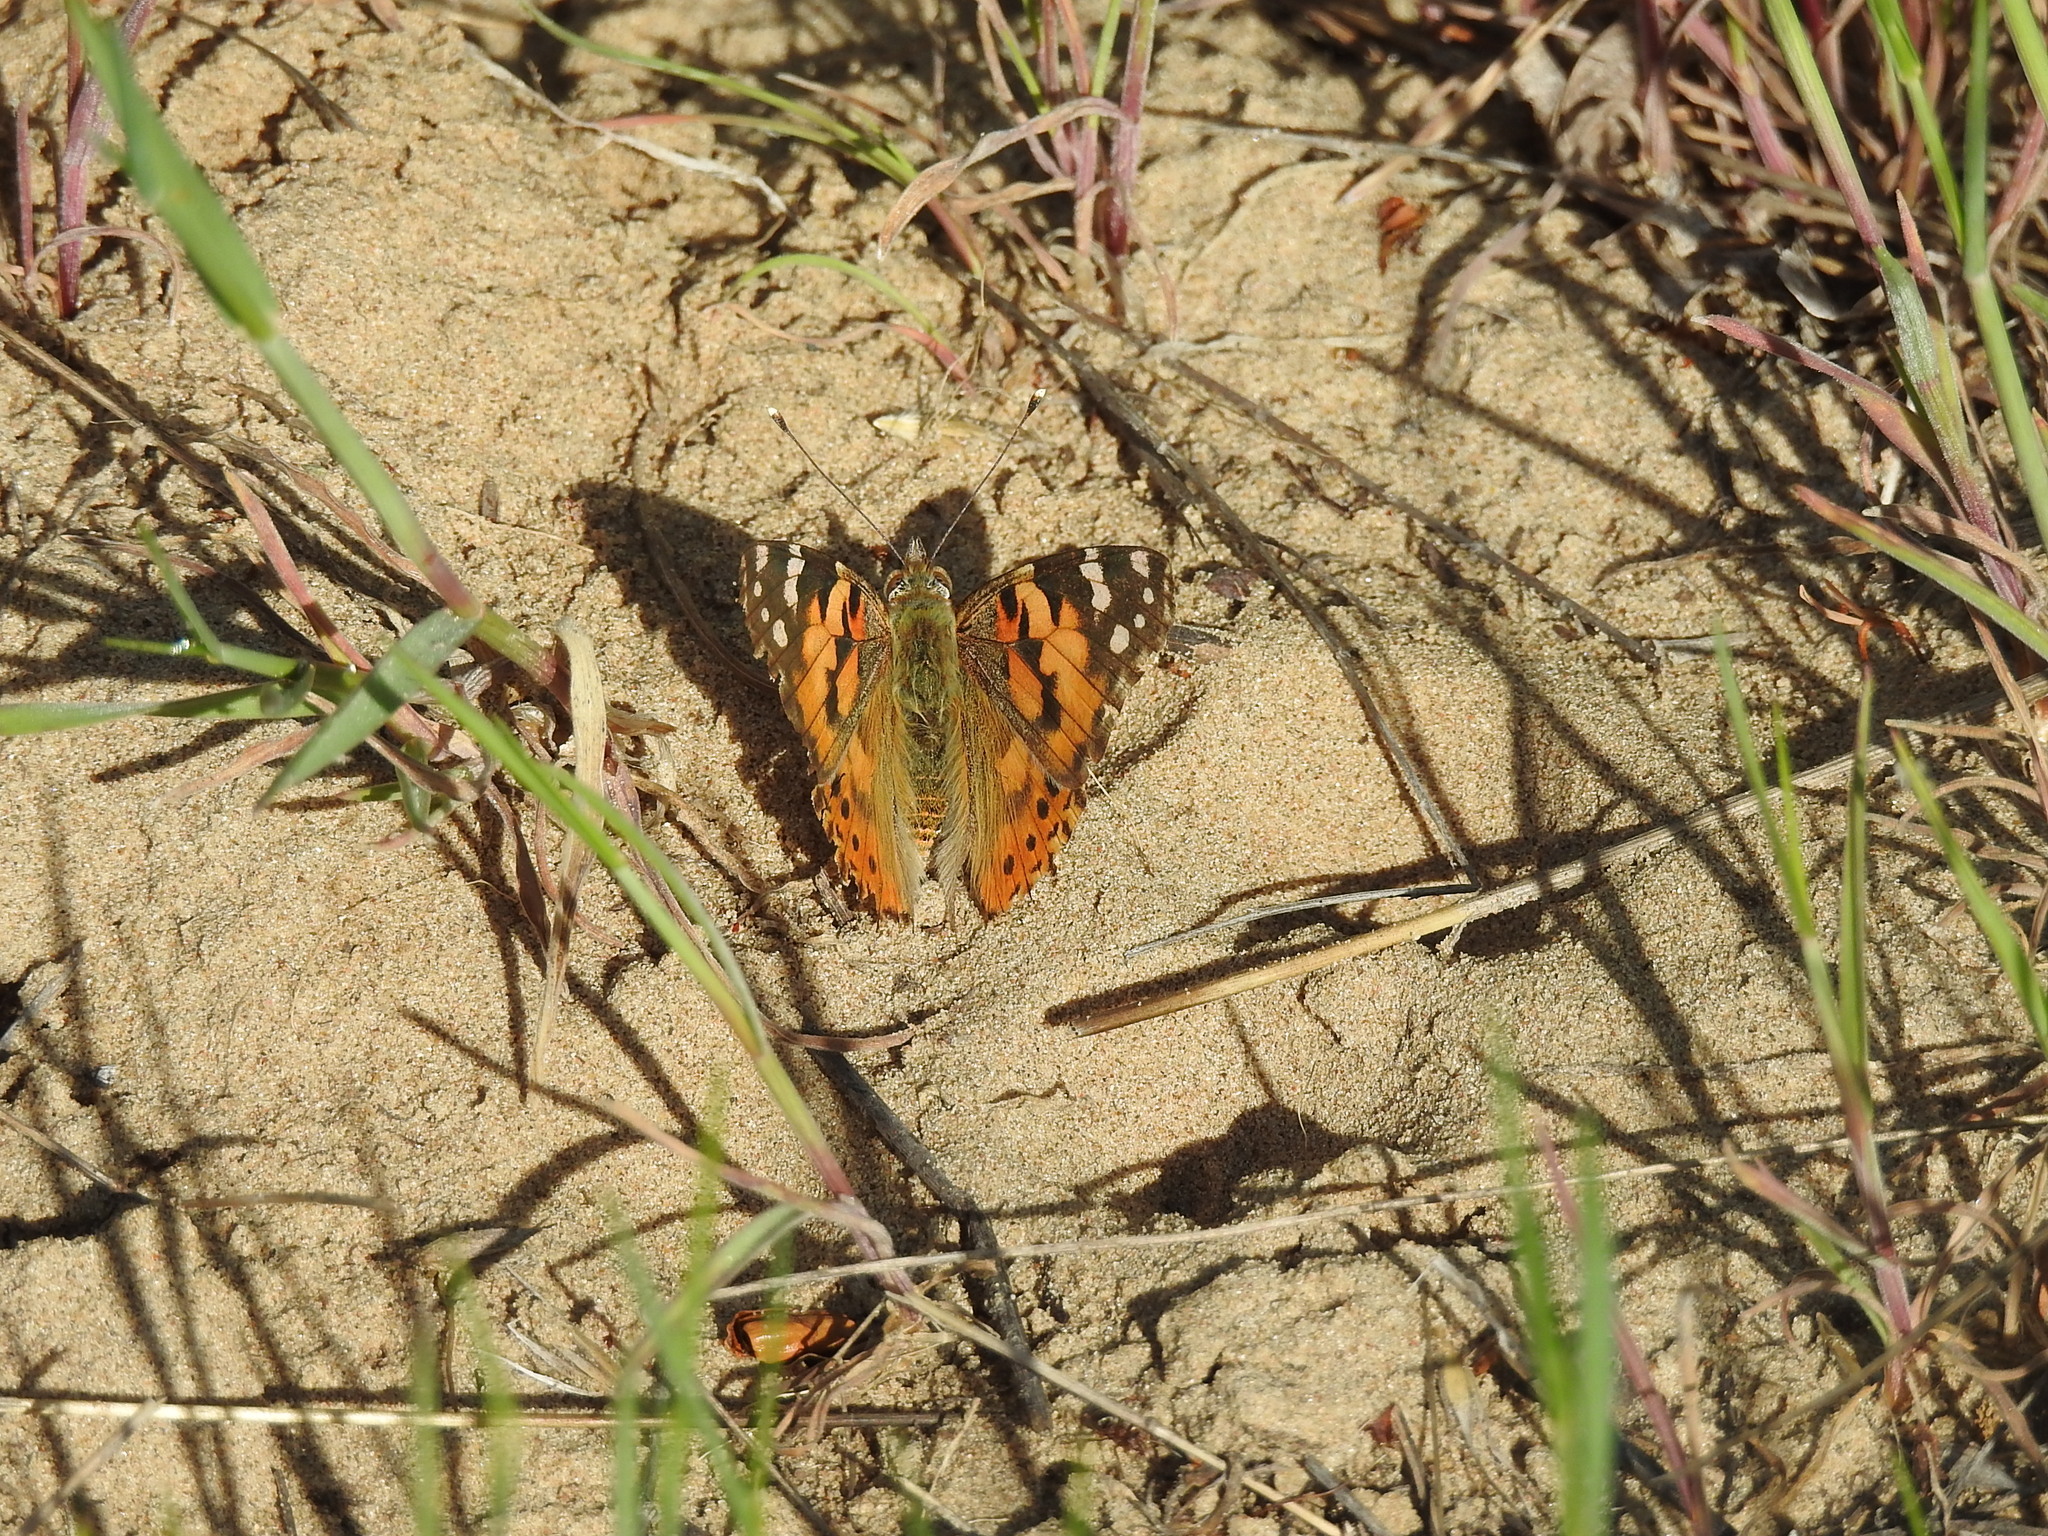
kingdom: Animalia
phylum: Arthropoda
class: Insecta
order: Lepidoptera
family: Nymphalidae
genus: Vanessa
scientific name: Vanessa cardui
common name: Painted lady
